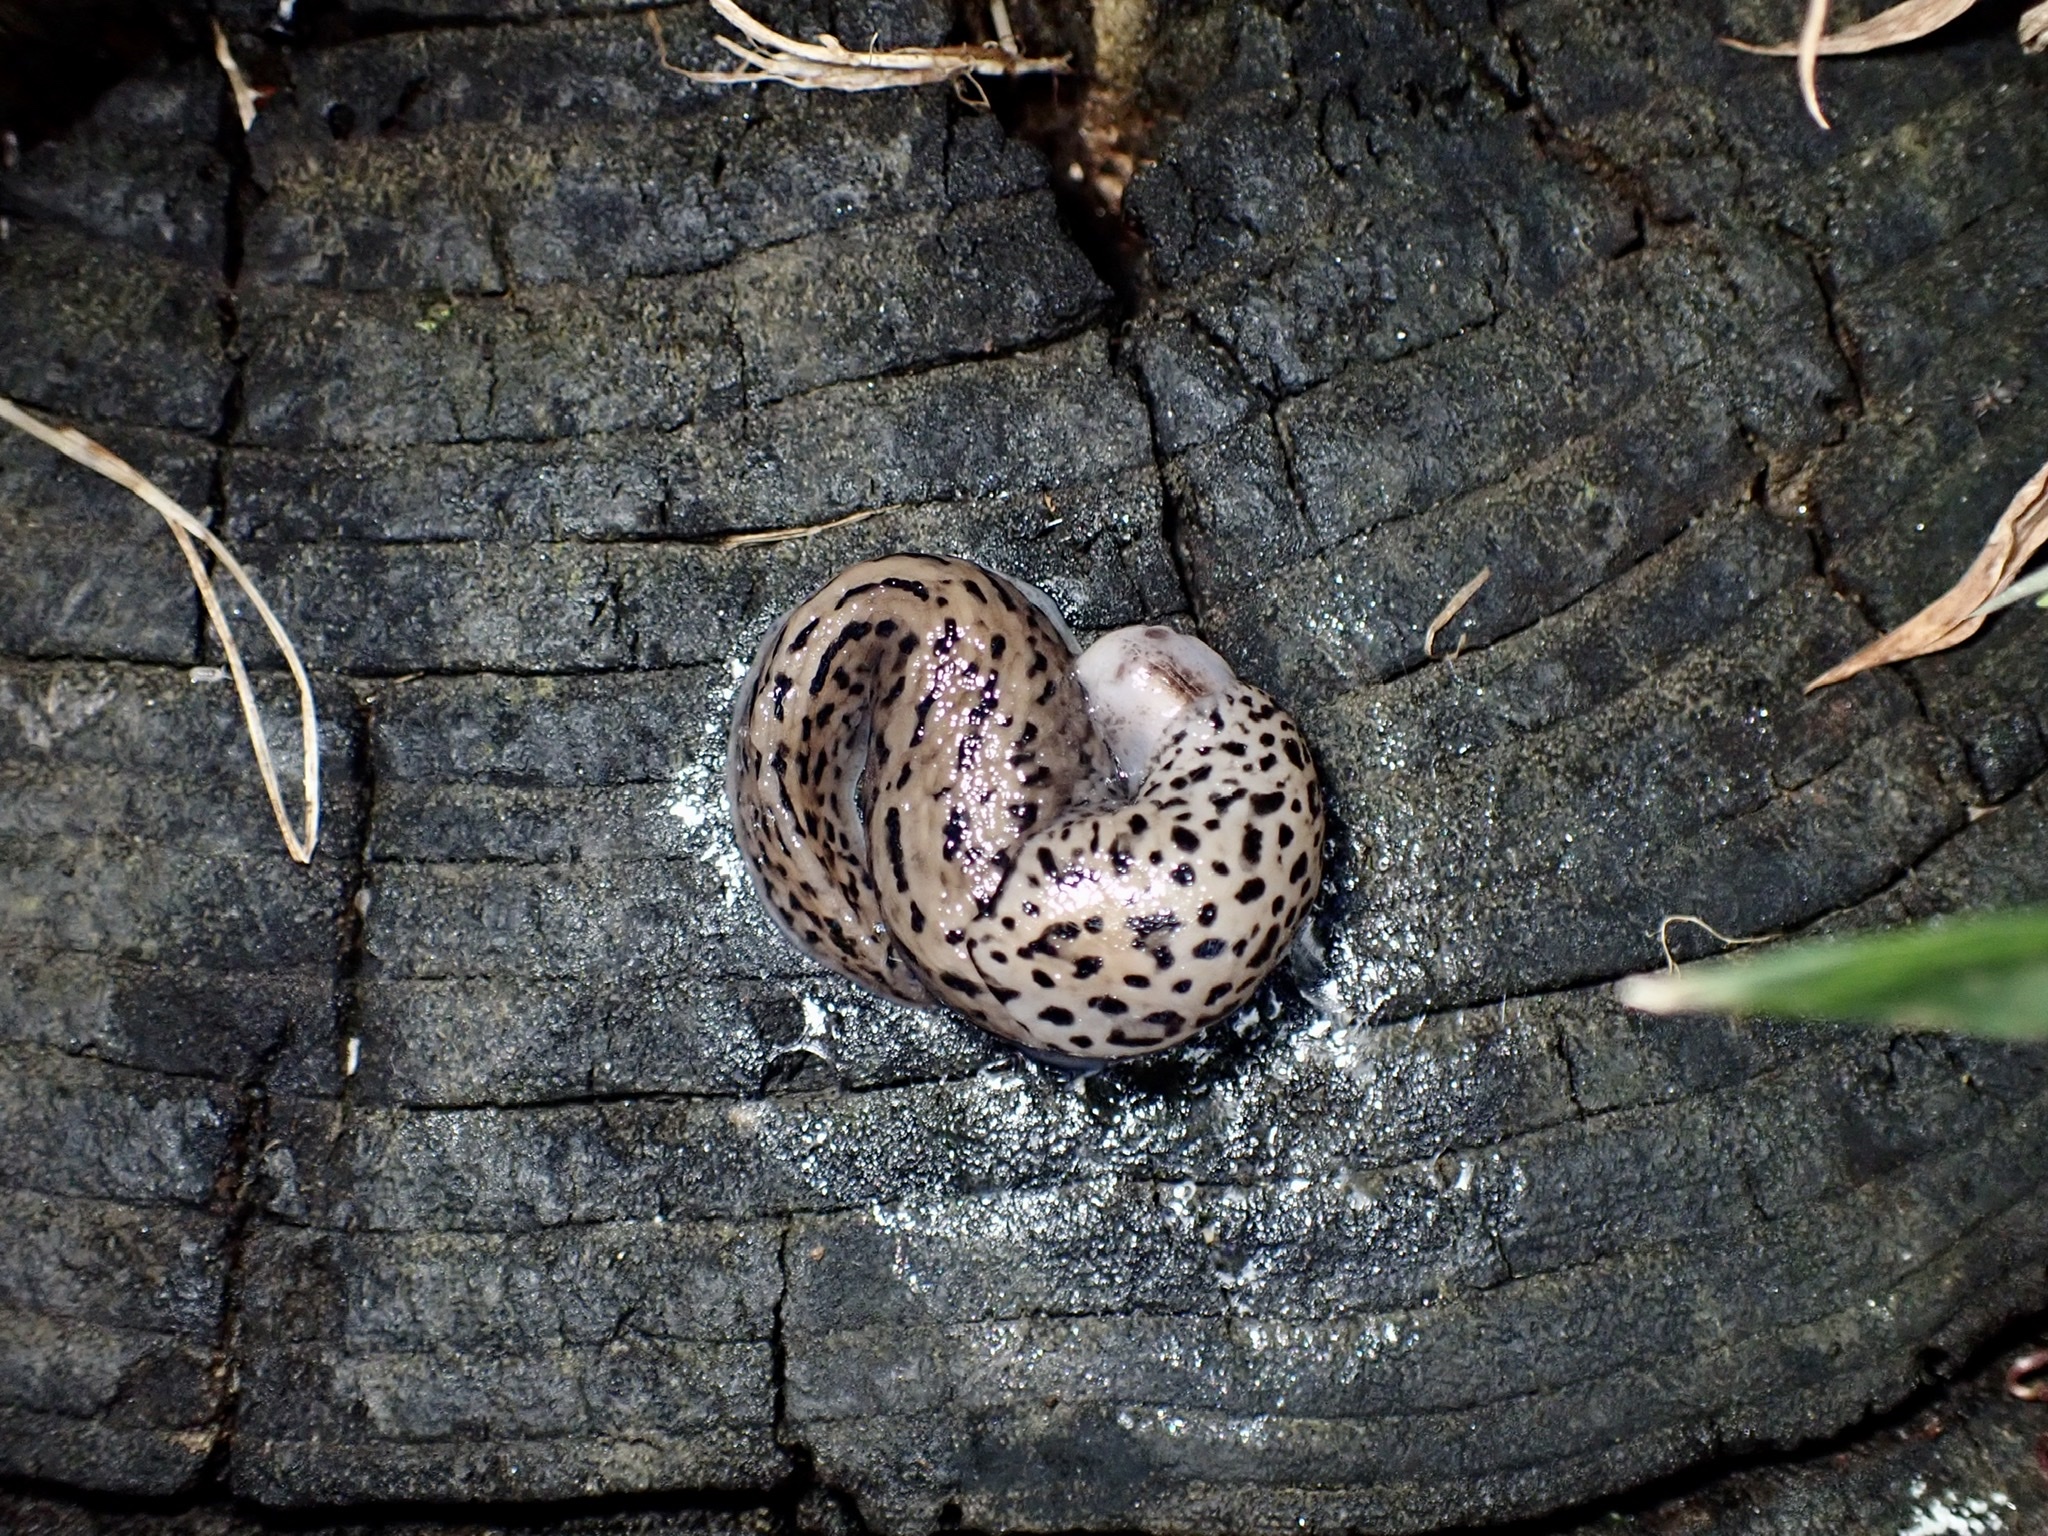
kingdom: Animalia
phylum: Mollusca
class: Gastropoda
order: Stylommatophora
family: Limacidae
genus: Limax
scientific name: Limax maximus
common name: Great grey slug
